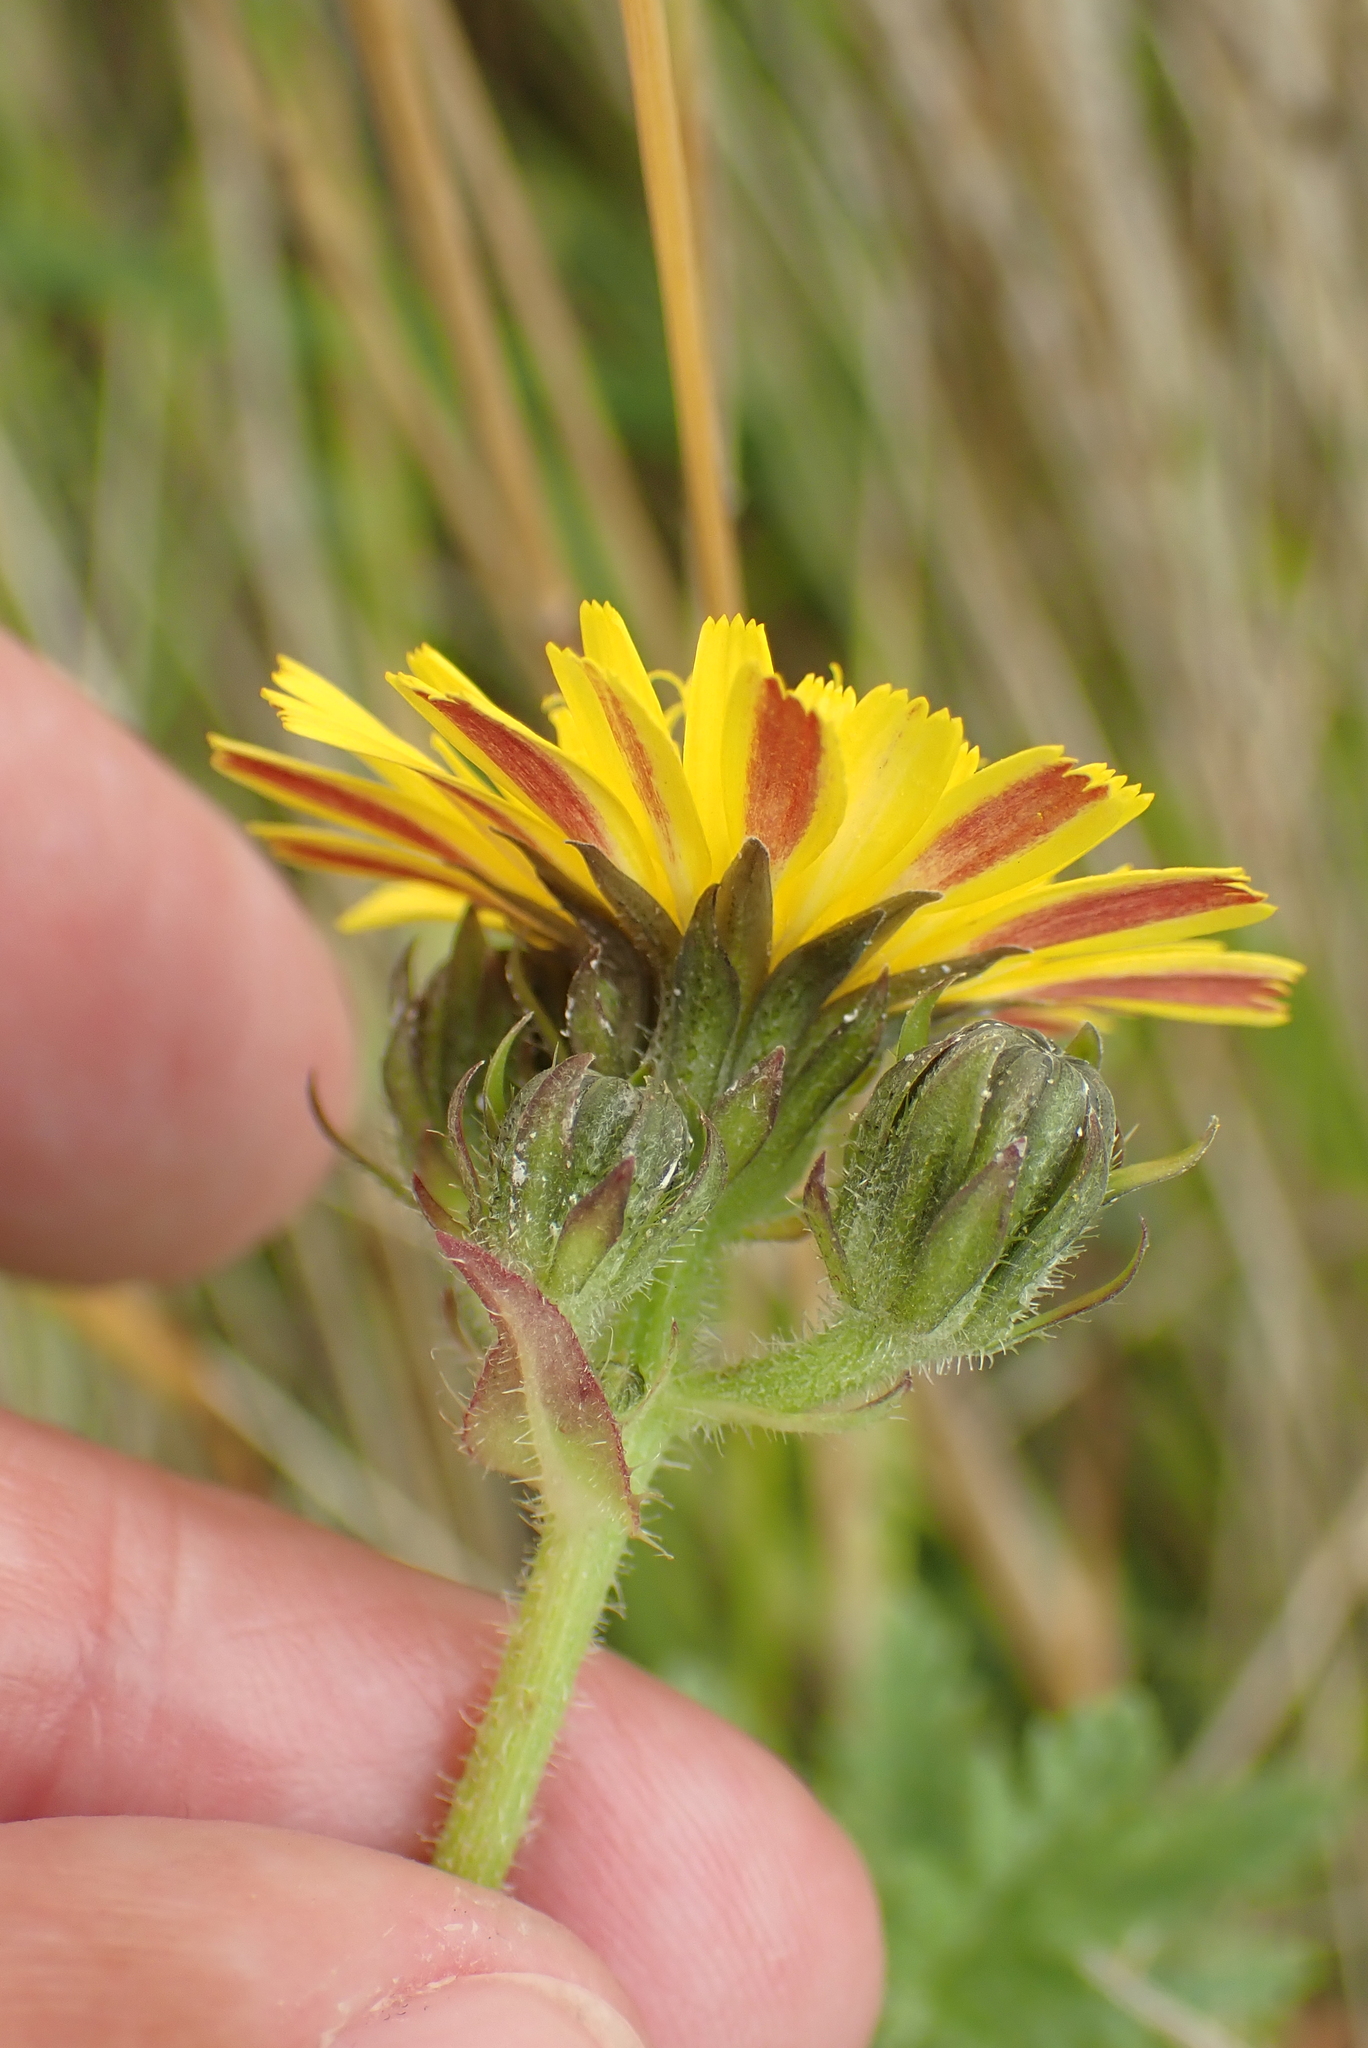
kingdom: Plantae
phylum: Tracheophyta
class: Magnoliopsida
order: Asterales
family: Asteraceae
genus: Picris
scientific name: Picris hieracioides
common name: Hawkweed oxtongue
